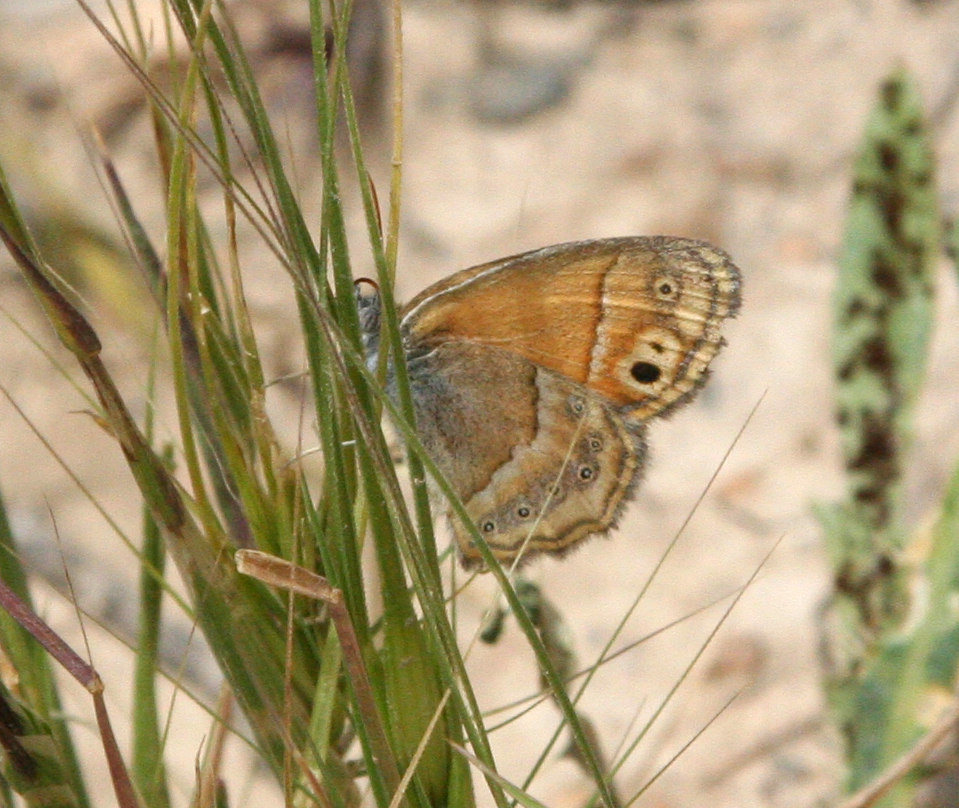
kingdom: Animalia
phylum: Arthropoda
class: Insecta
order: Lepidoptera
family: Nymphalidae
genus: Coenonympha
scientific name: Coenonympha saadi
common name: Small heath
